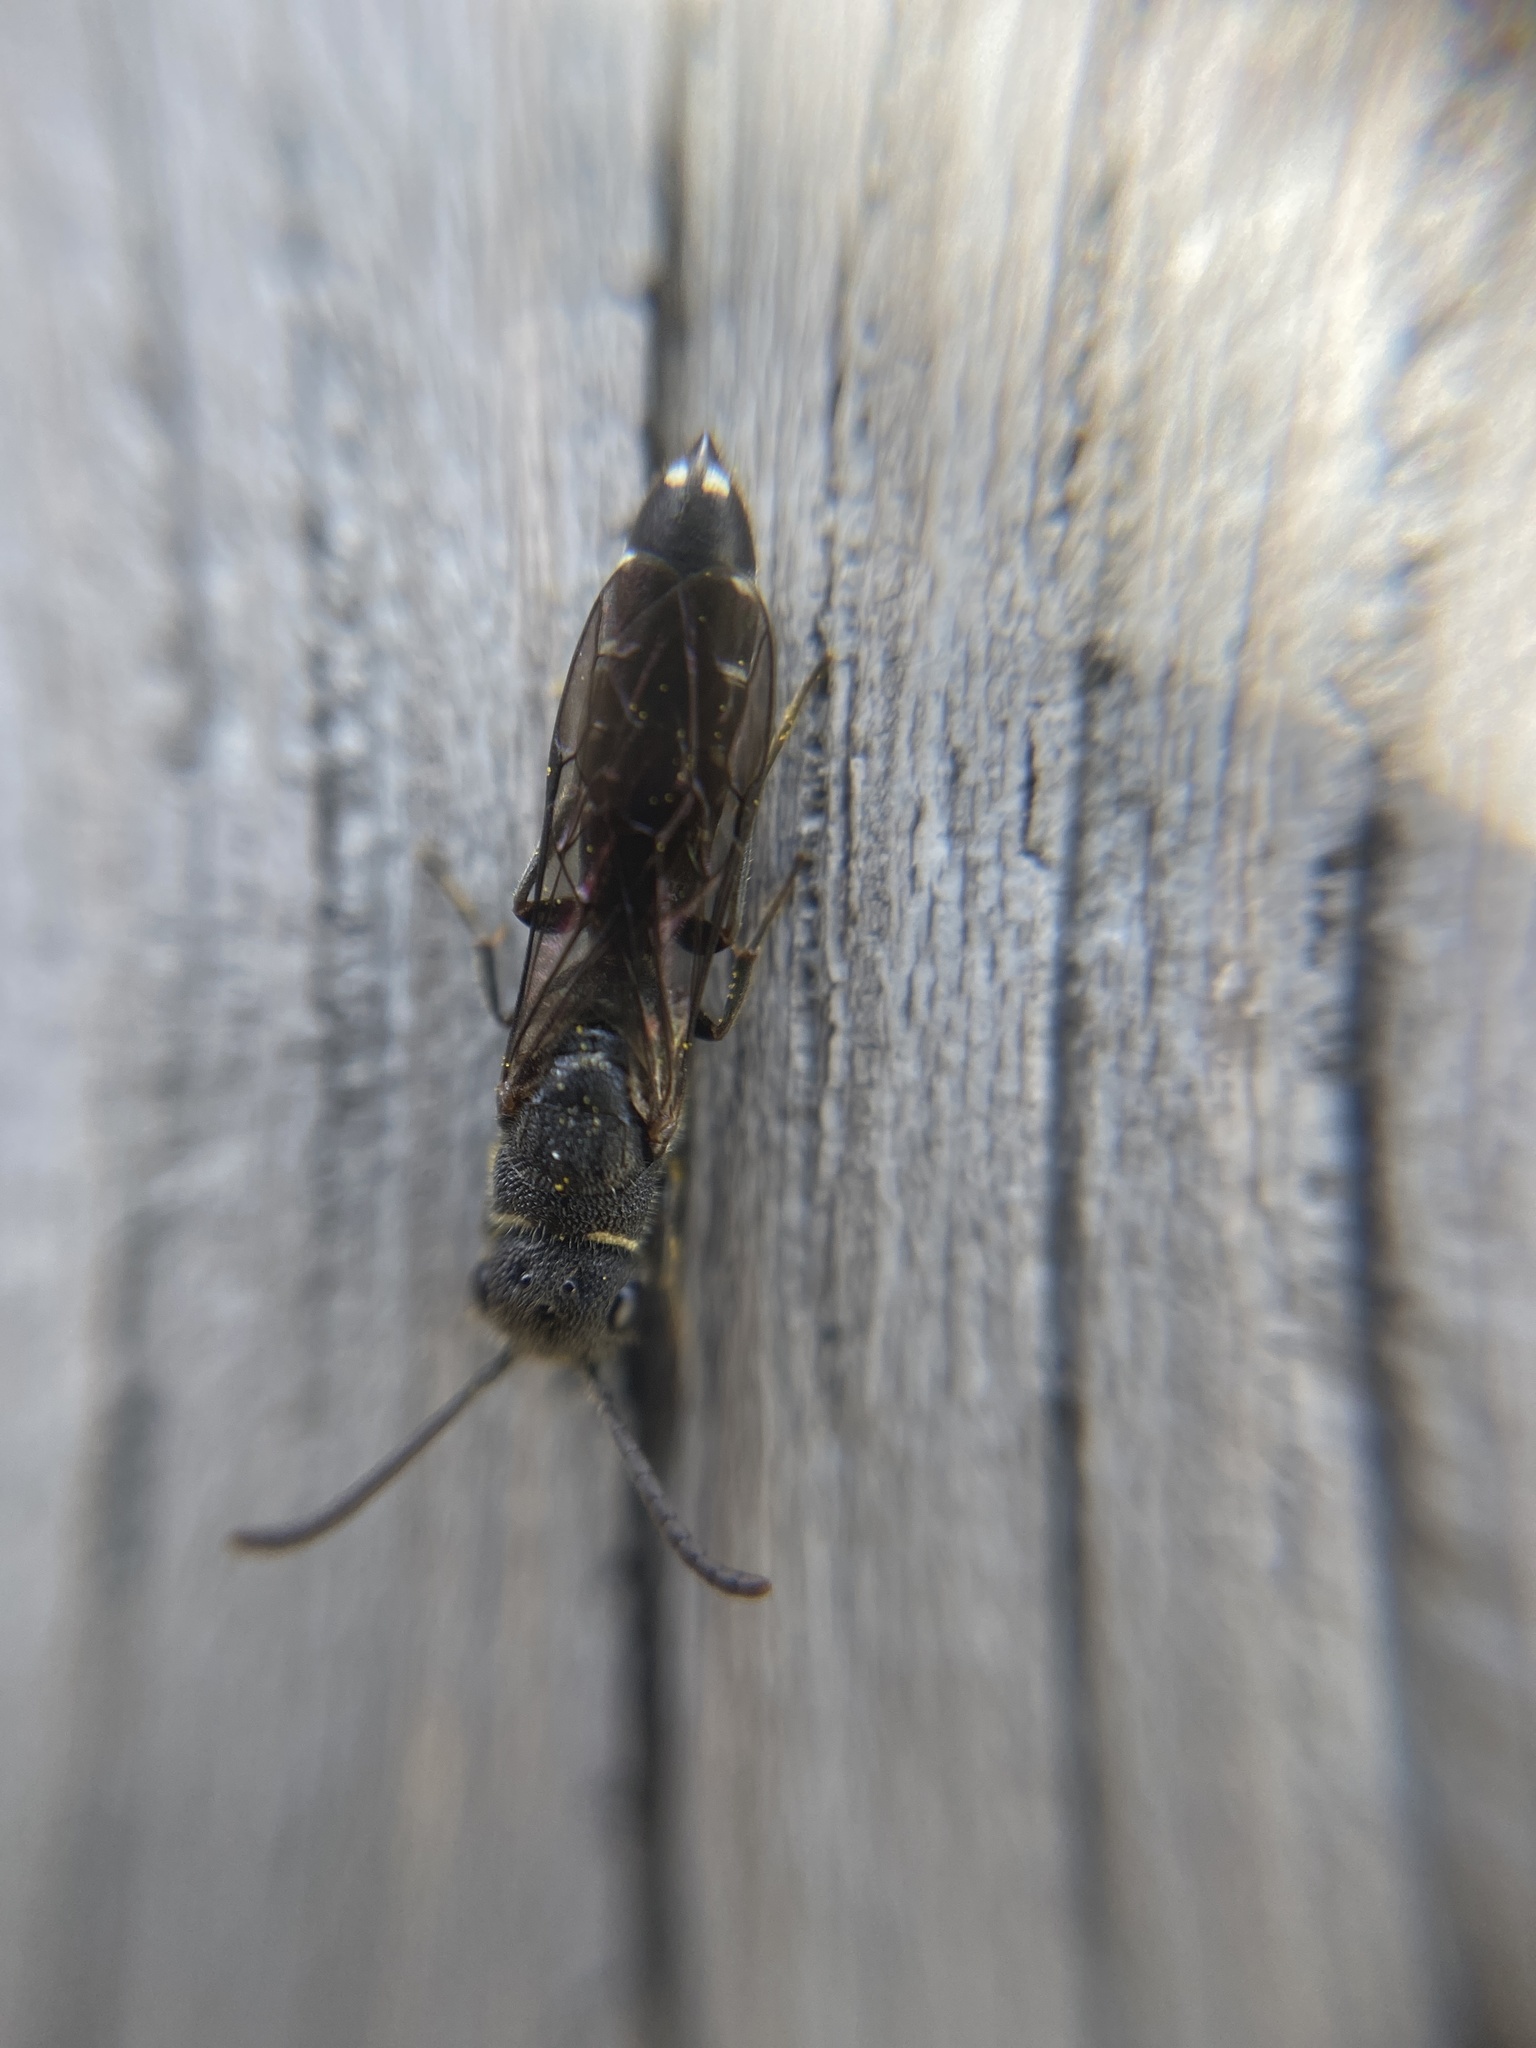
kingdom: Animalia
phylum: Arthropoda
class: Insecta
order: Hymenoptera
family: Sapygidae
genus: Sapygina
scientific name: Sapygina decemguttata
